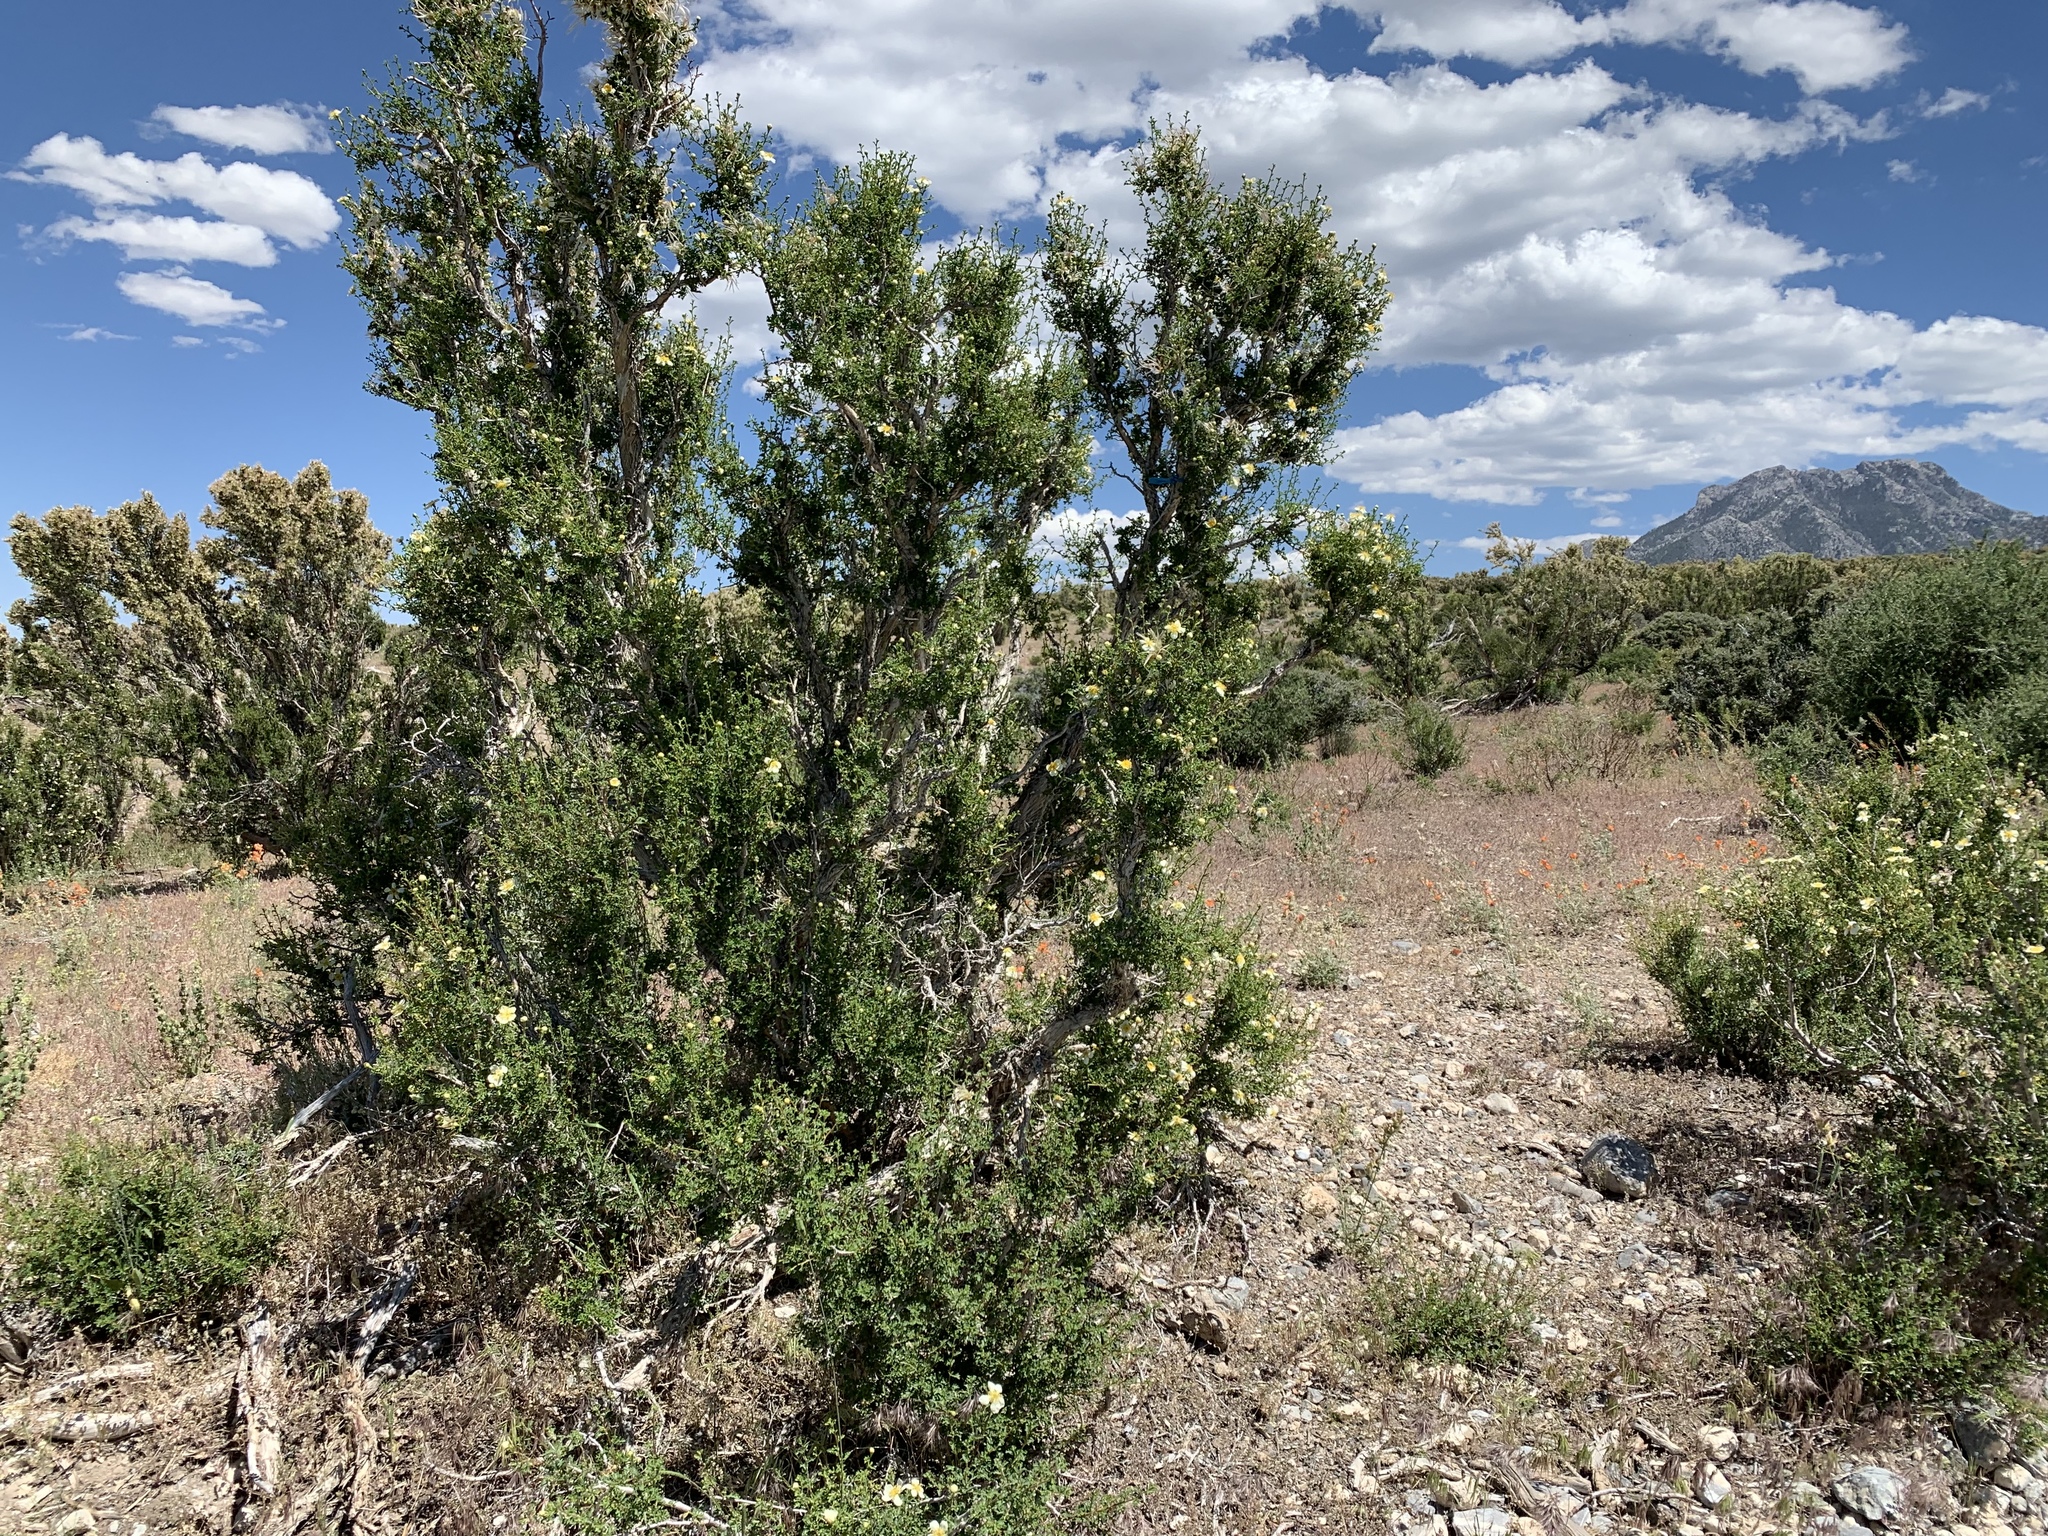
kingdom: Plantae
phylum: Tracheophyta
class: Magnoliopsida
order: Rosales
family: Rosaceae
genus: Purshia
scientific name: Purshia stansburiana
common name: Stansbury's cliffrose
